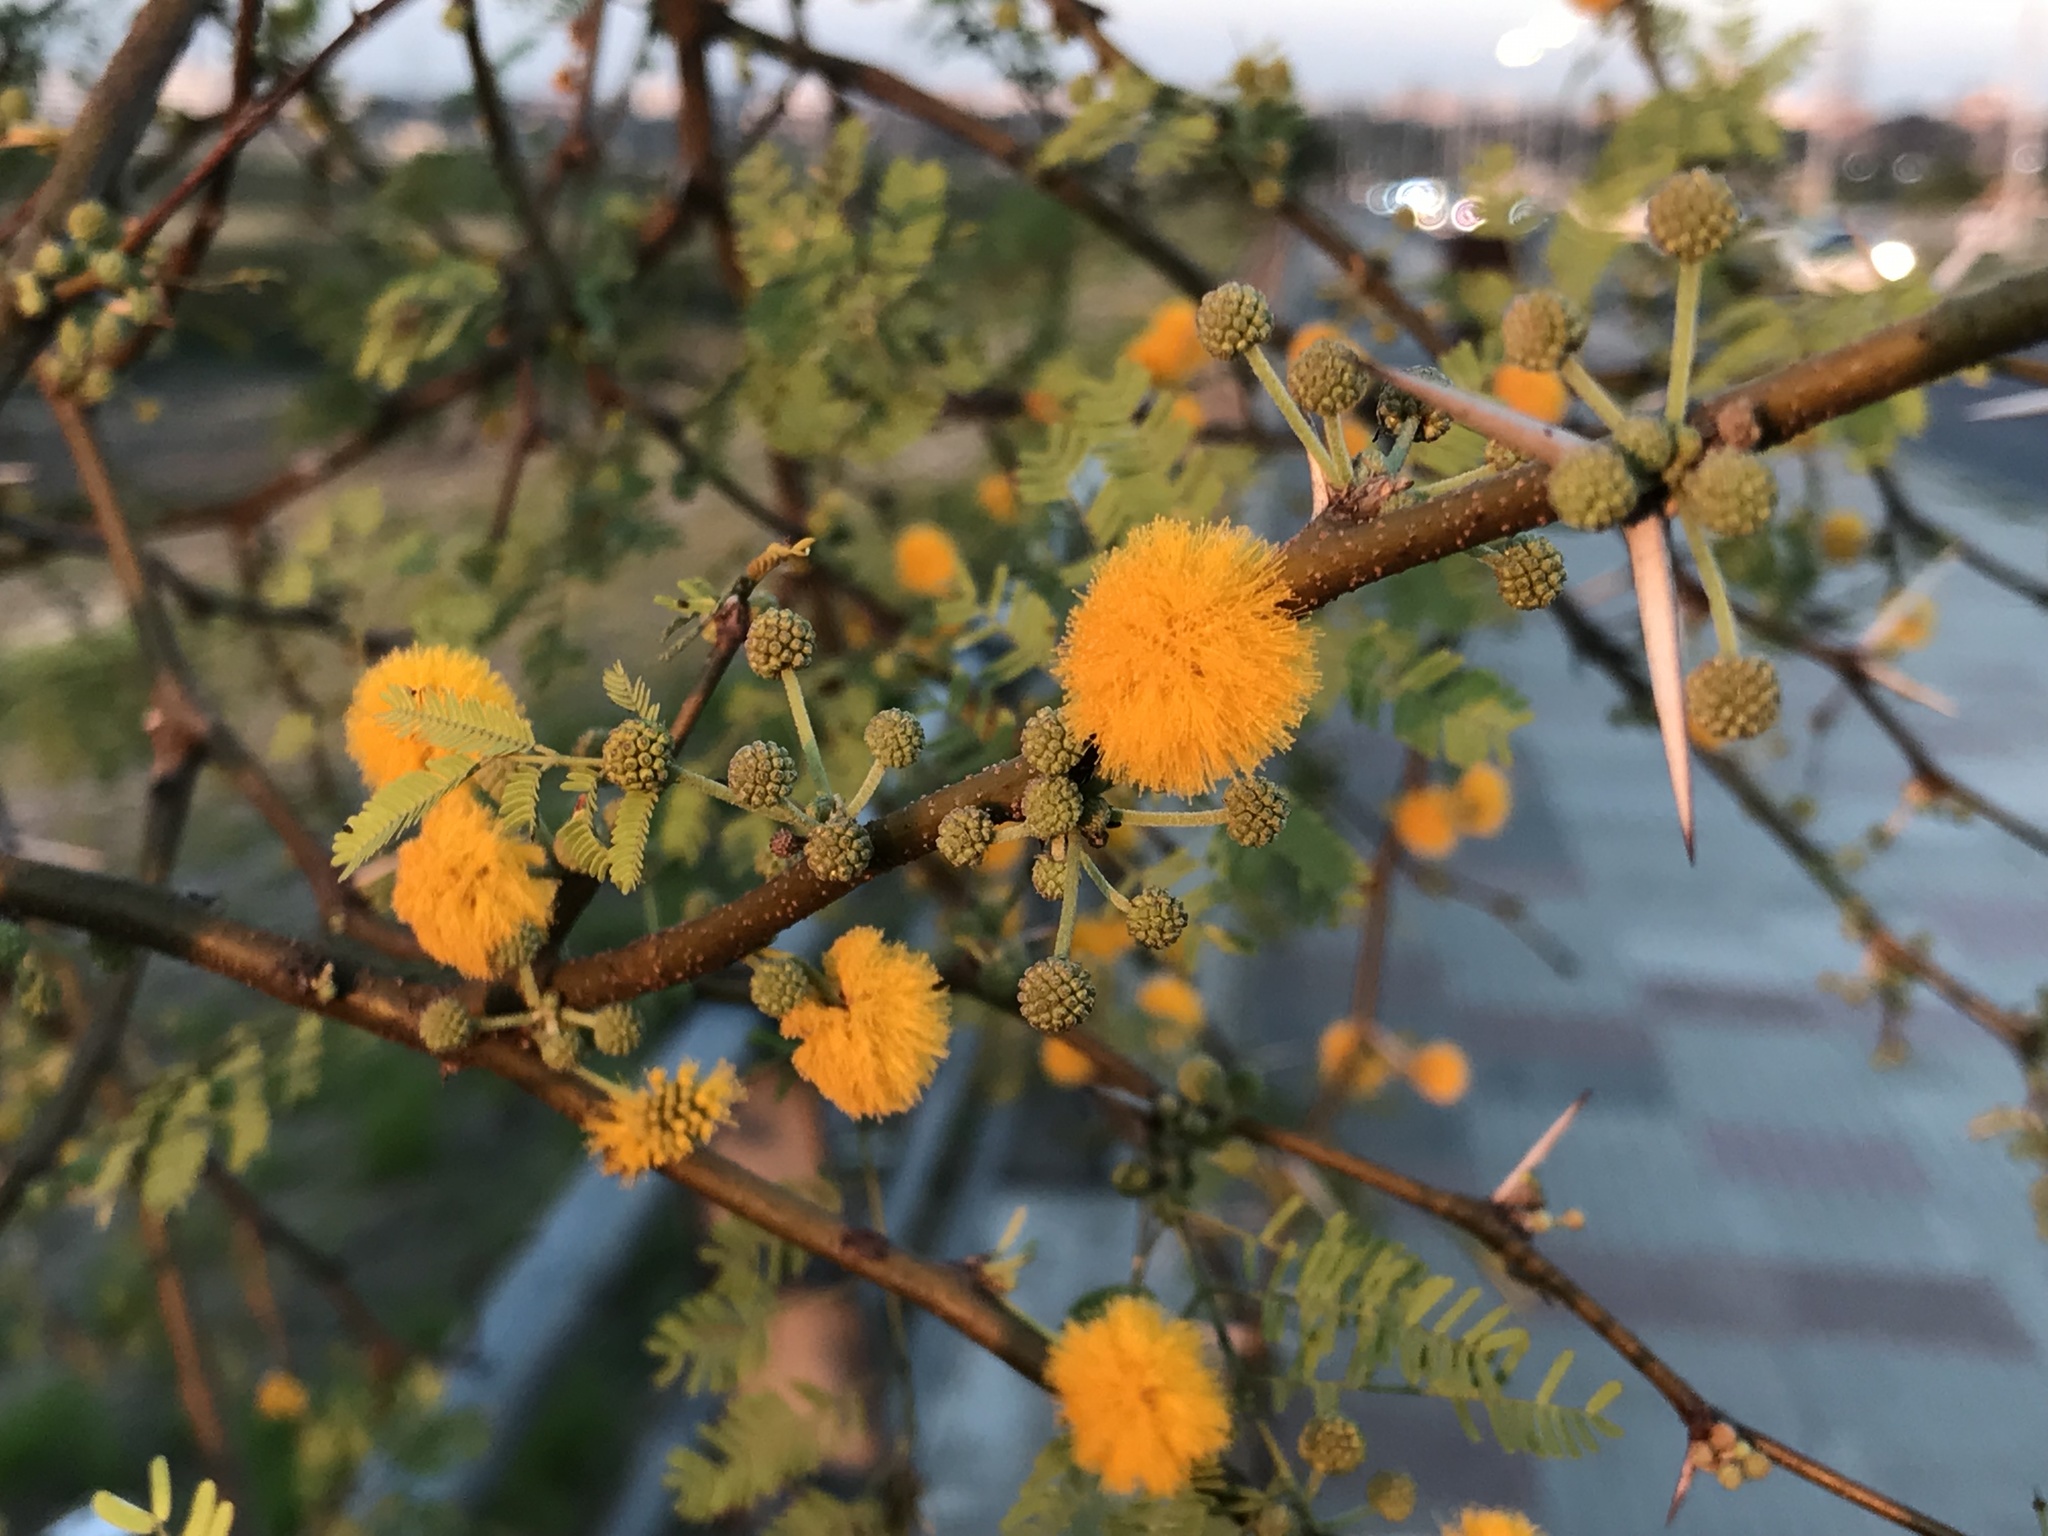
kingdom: Plantae
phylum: Tracheophyta
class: Magnoliopsida
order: Fabales
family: Fabaceae
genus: Vachellia
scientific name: Vachellia caven
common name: Roman cassie
